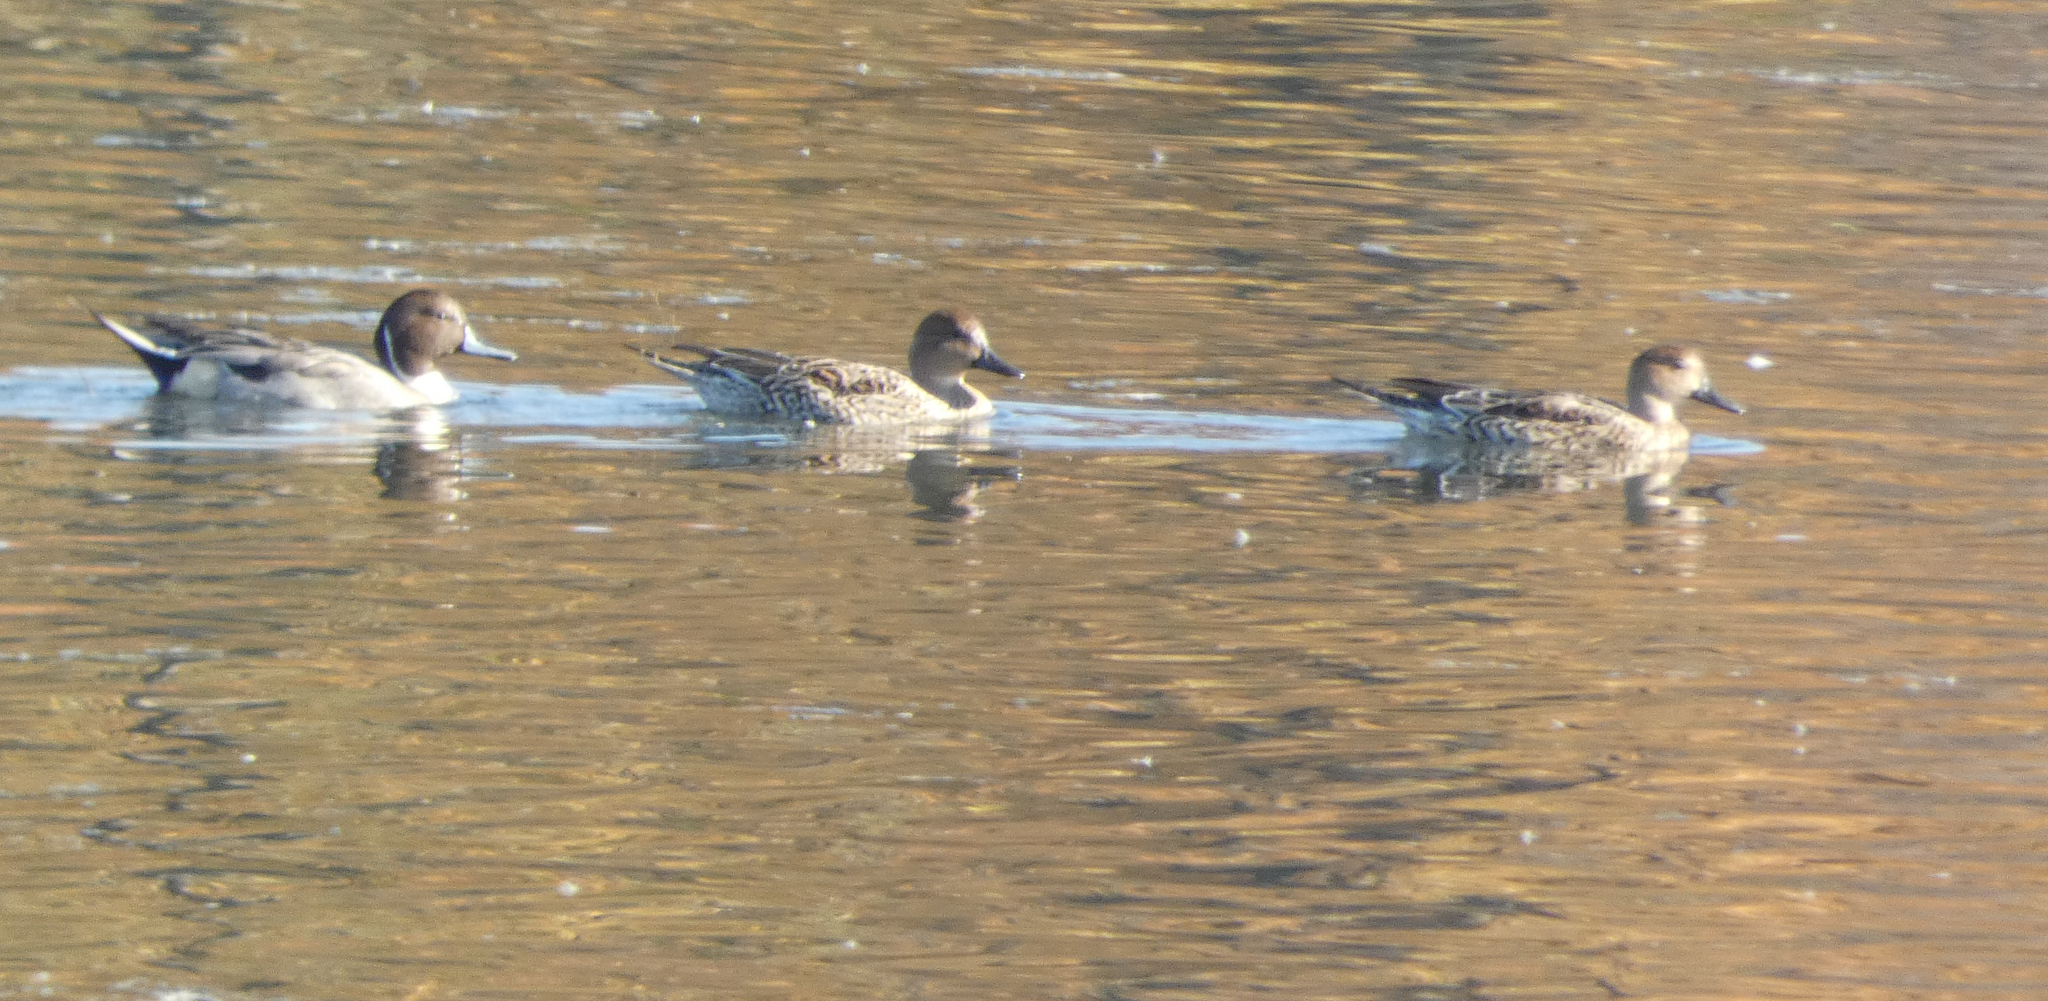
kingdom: Animalia
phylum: Chordata
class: Aves
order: Anseriformes
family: Anatidae
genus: Anas
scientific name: Anas acuta
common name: Northern pintail
